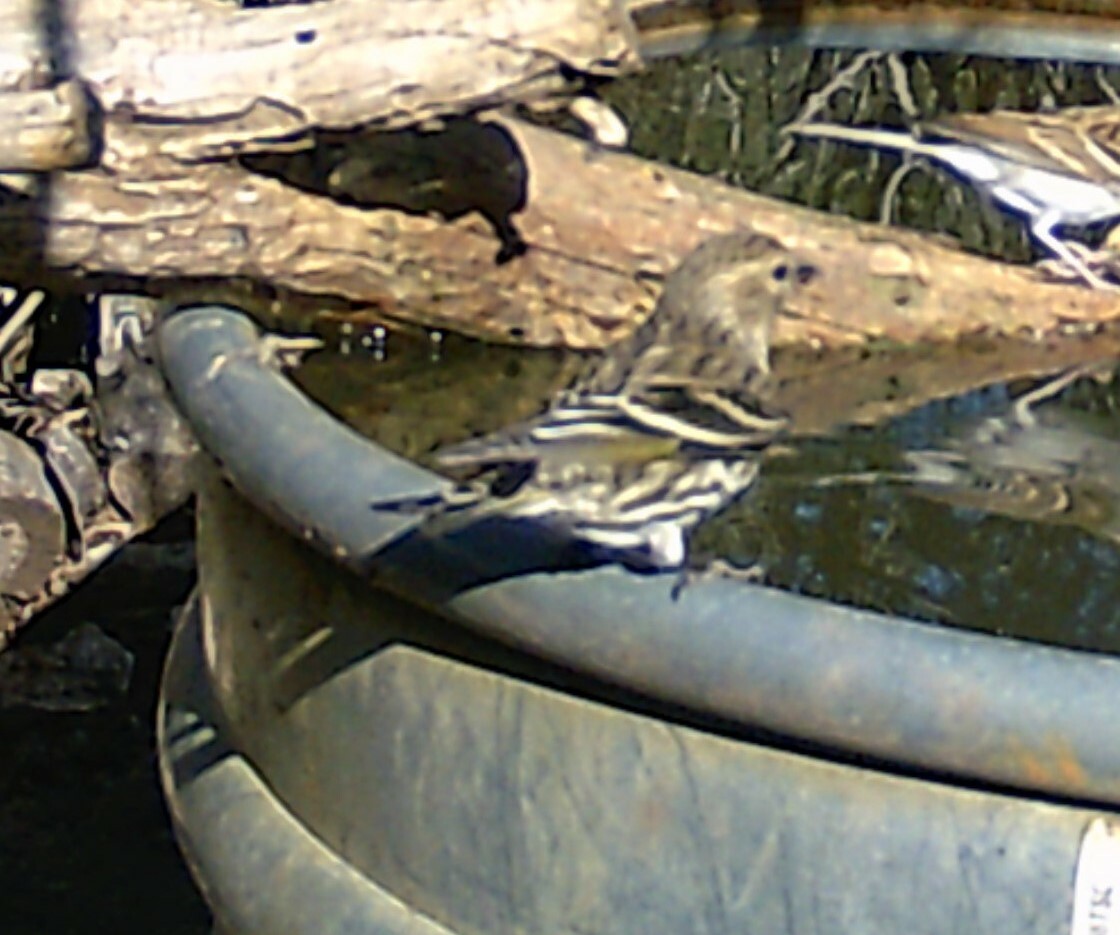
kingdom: Animalia
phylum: Chordata
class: Aves
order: Passeriformes
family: Fringillidae
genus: Spinus
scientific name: Spinus pinus
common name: Pine siskin
